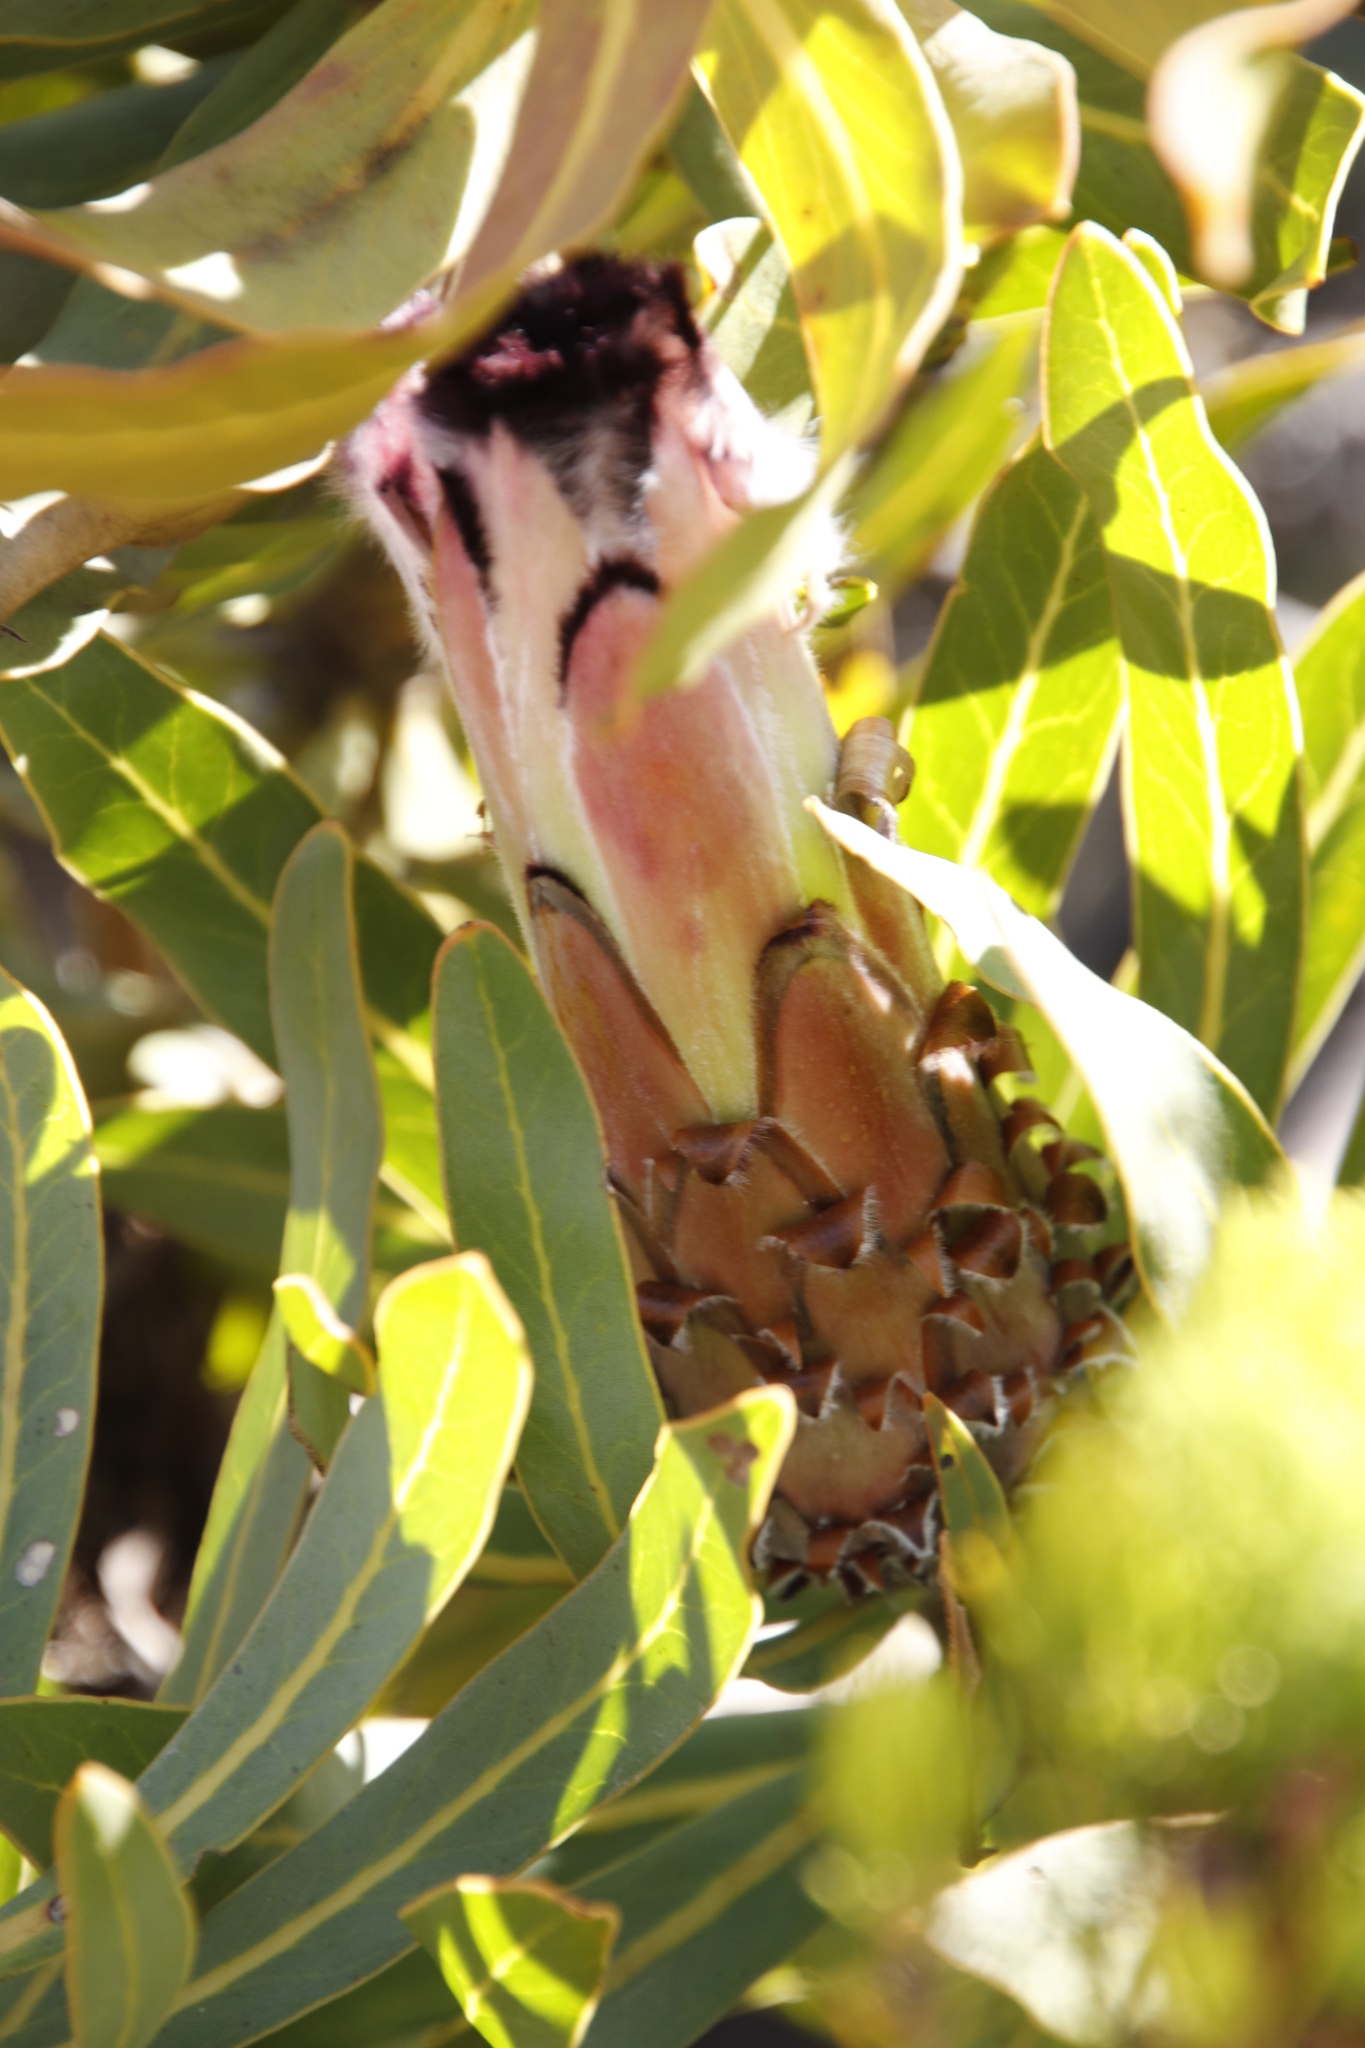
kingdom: Plantae
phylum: Tracheophyta
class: Magnoliopsida
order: Proteales
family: Proteaceae
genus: Protea
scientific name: Protea neriifolia
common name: Blue sugarbush
